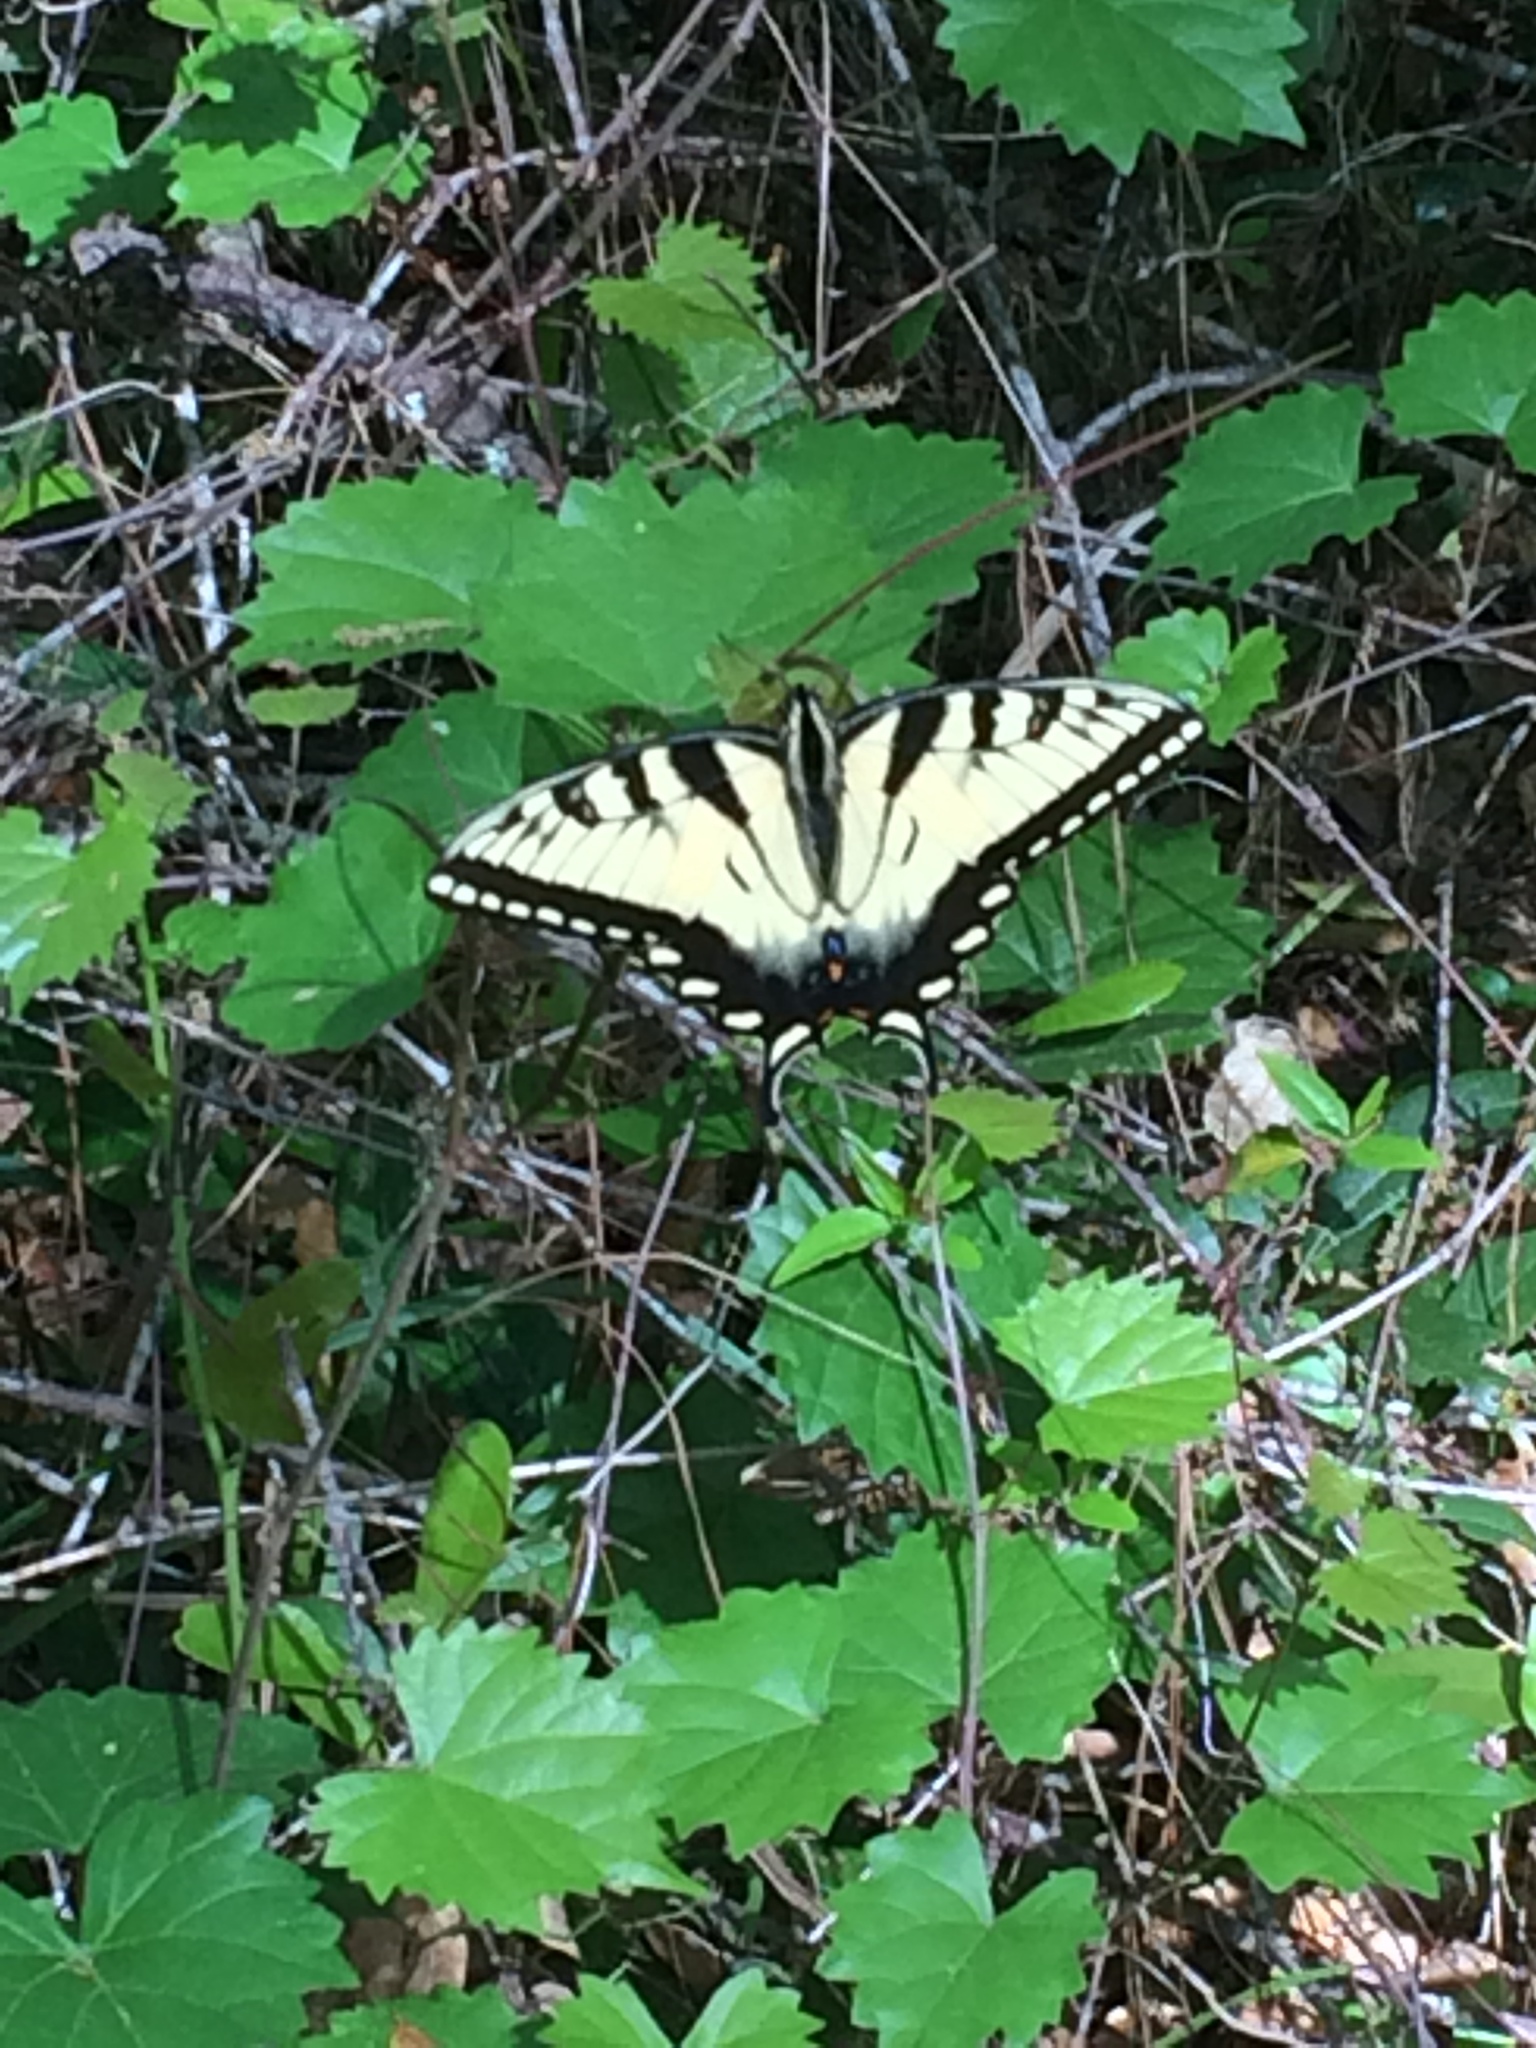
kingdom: Animalia
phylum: Arthropoda
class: Insecta
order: Lepidoptera
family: Papilionidae
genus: Papilio
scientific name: Papilio glaucus
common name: Tiger swallowtail
